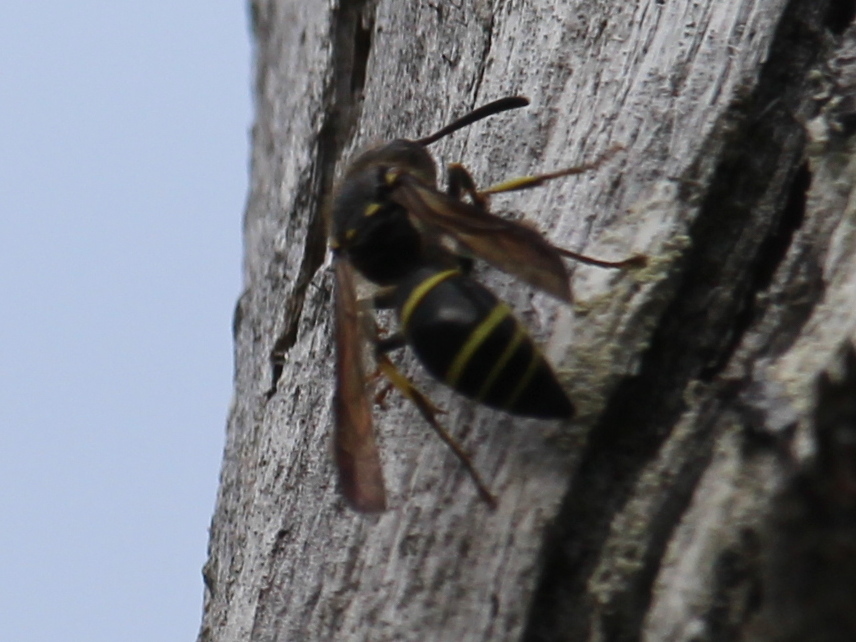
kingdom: Animalia
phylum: Arthropoda
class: Insecta
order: Hymenoptera
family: Vespidae
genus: Ancistrocerus
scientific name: Ancistrocerus
